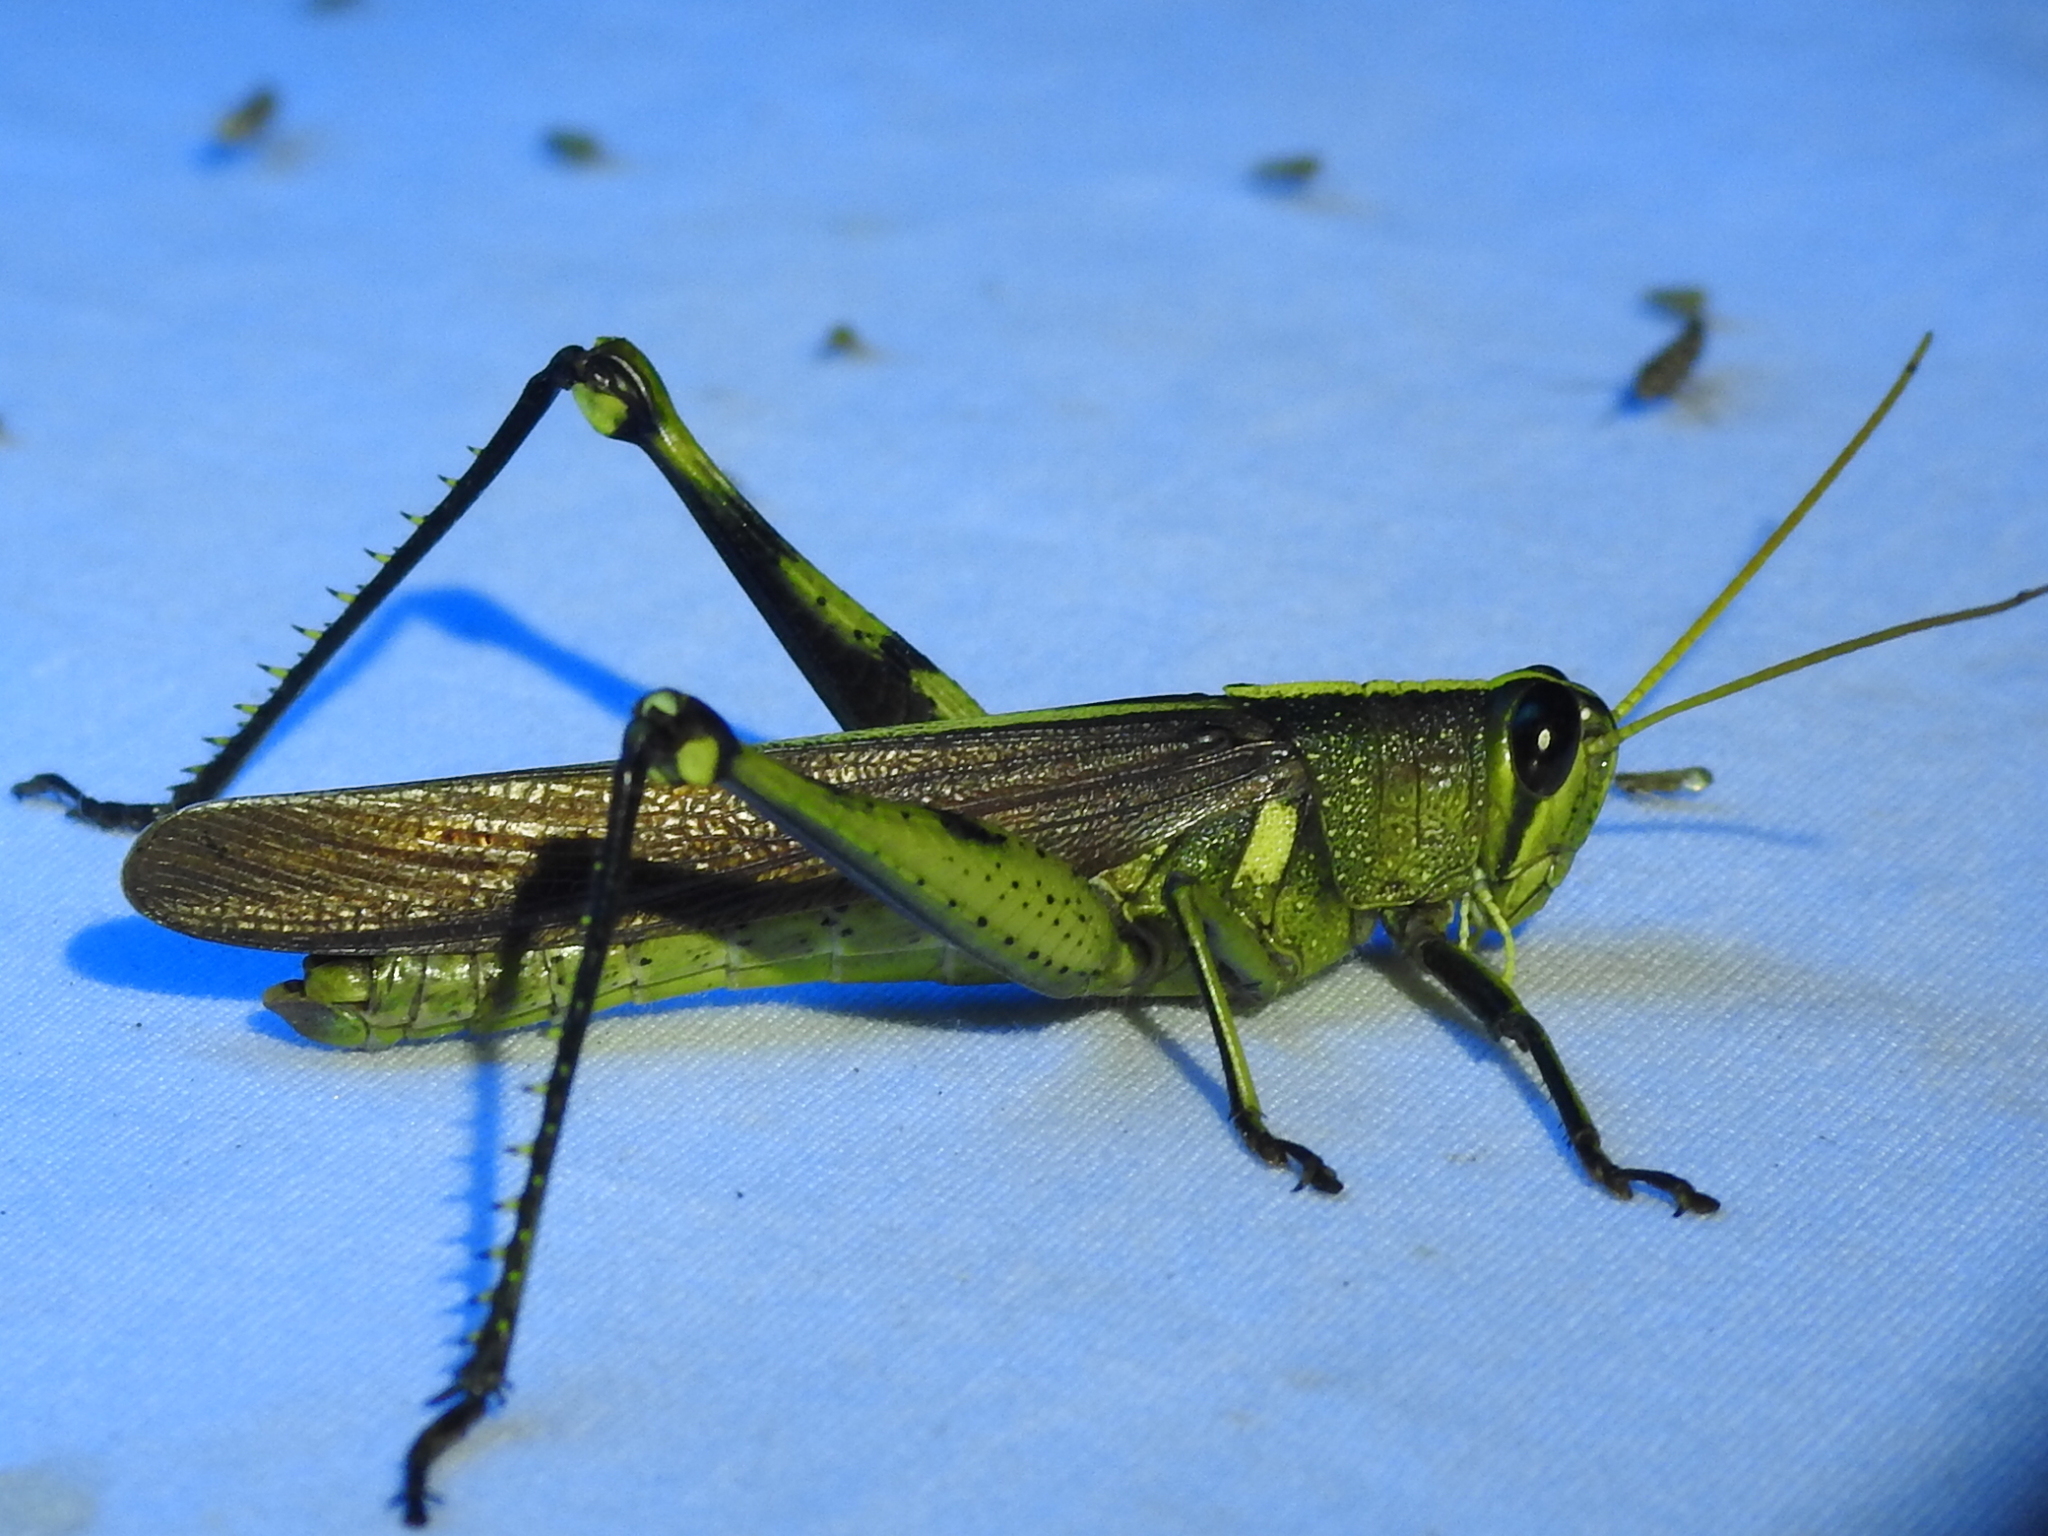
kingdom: Animalia
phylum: Arthropoda
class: Insecta
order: Orthoptera
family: Acrididae
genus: Schistocerca
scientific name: Schistocerca obscura
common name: Obscure bird grasshopper
